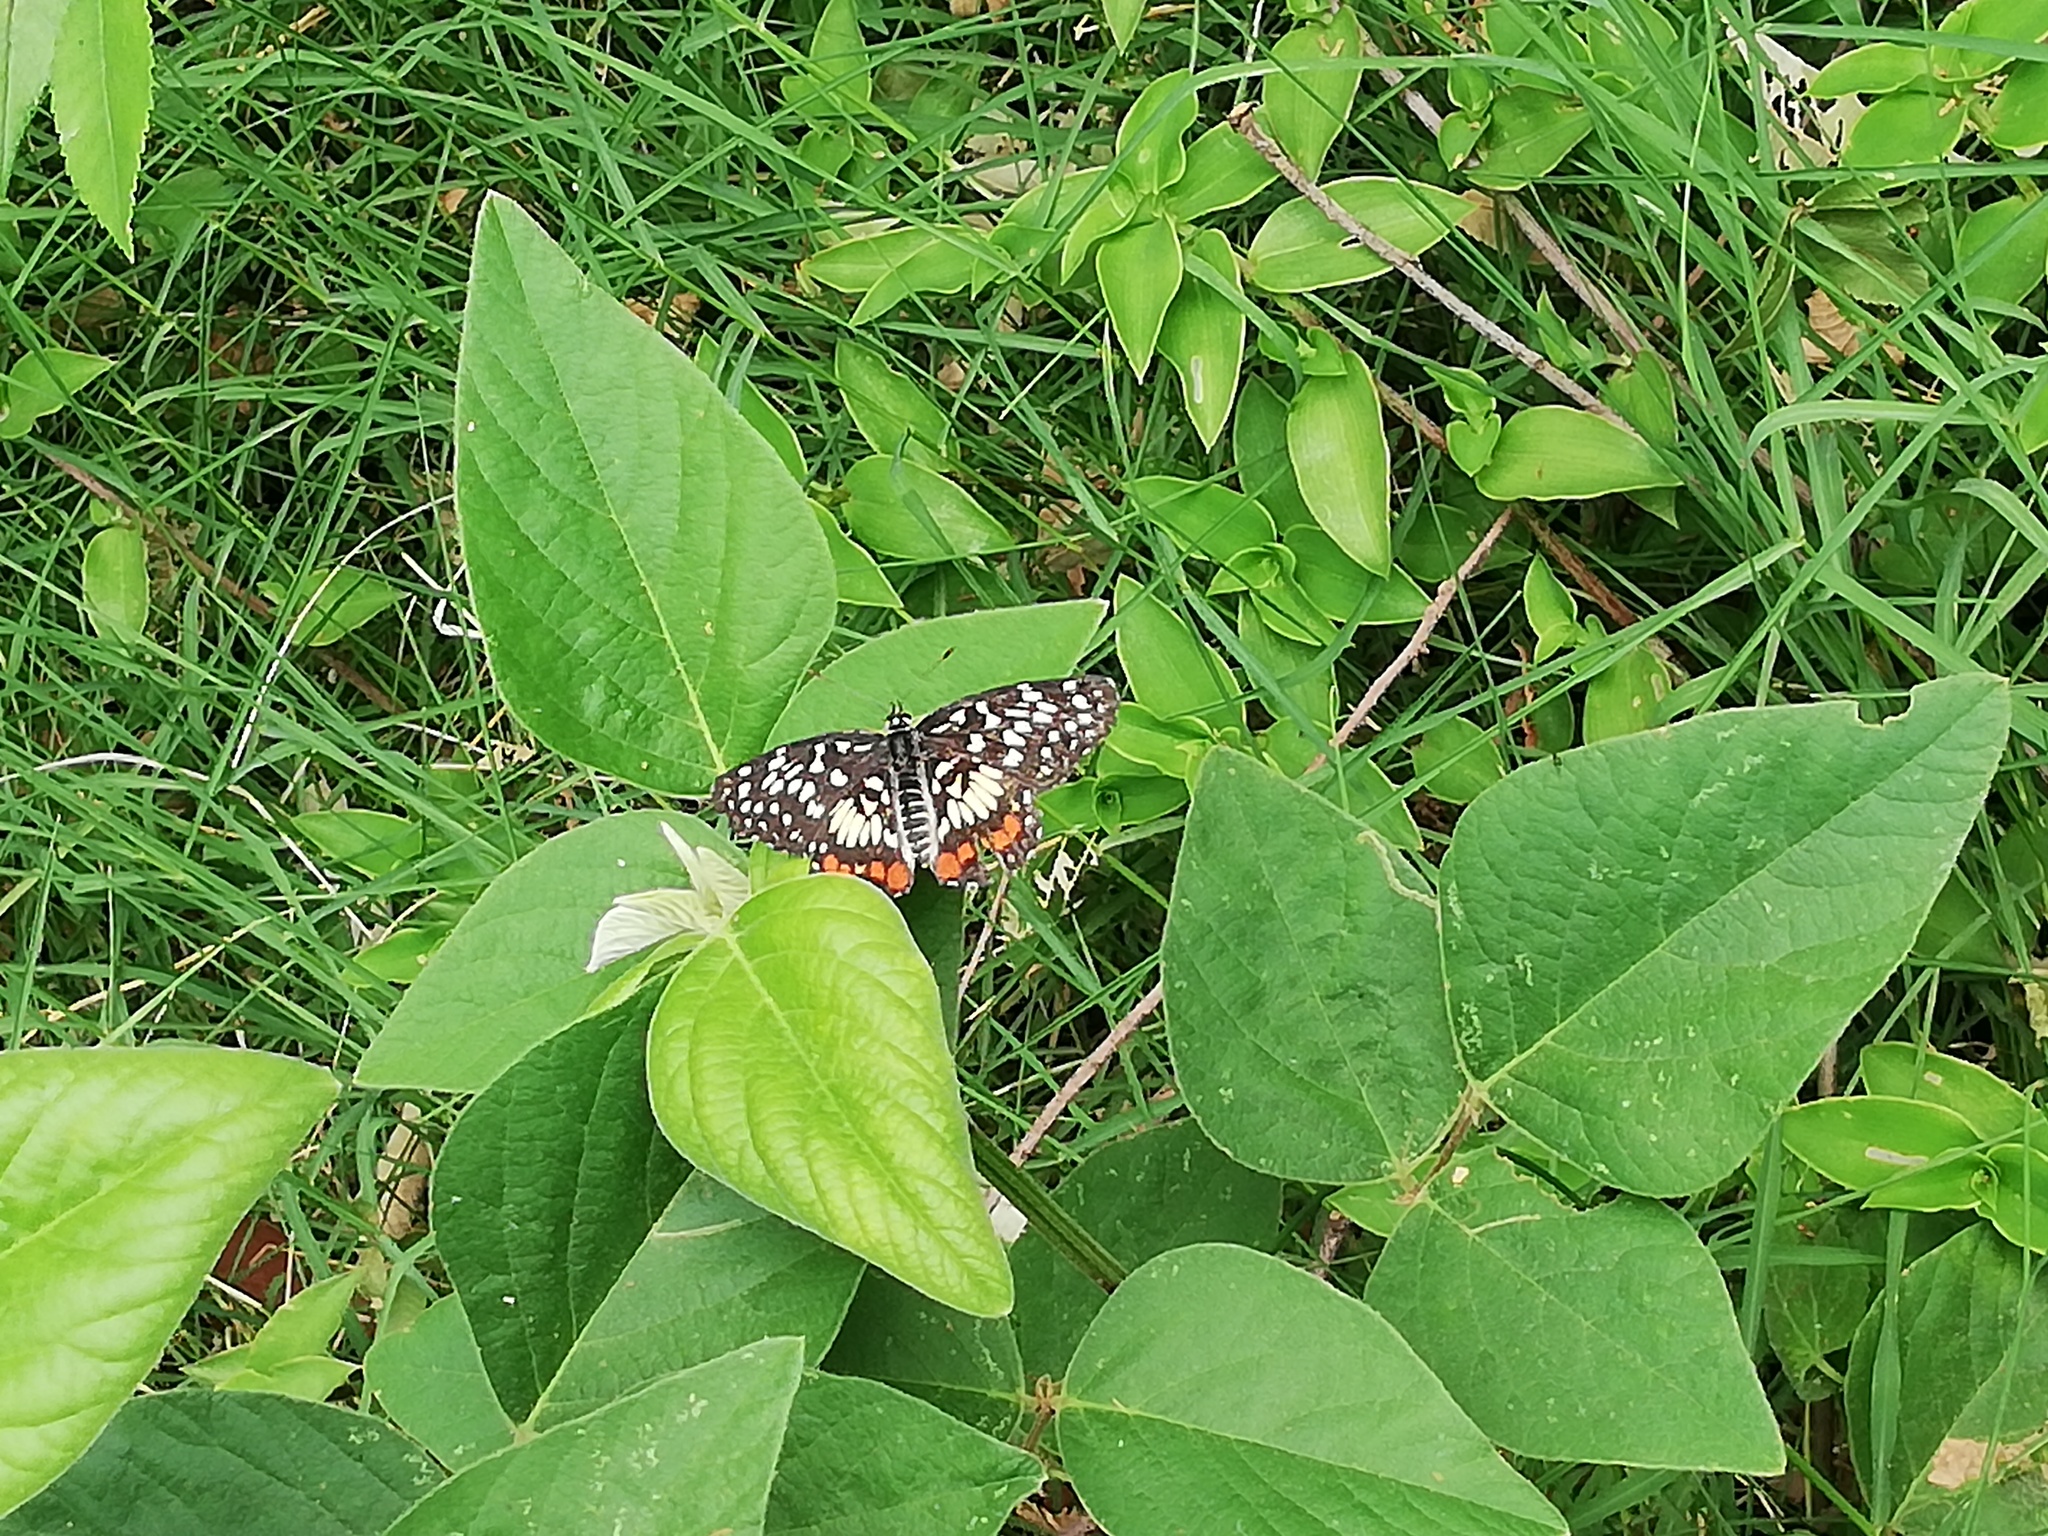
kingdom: Animalia
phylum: Arthropoda
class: Insecta
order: Lepidoptera
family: Nymphalidae
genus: Chlosyne
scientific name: Chlosyne marina
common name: Red-spotted patch
